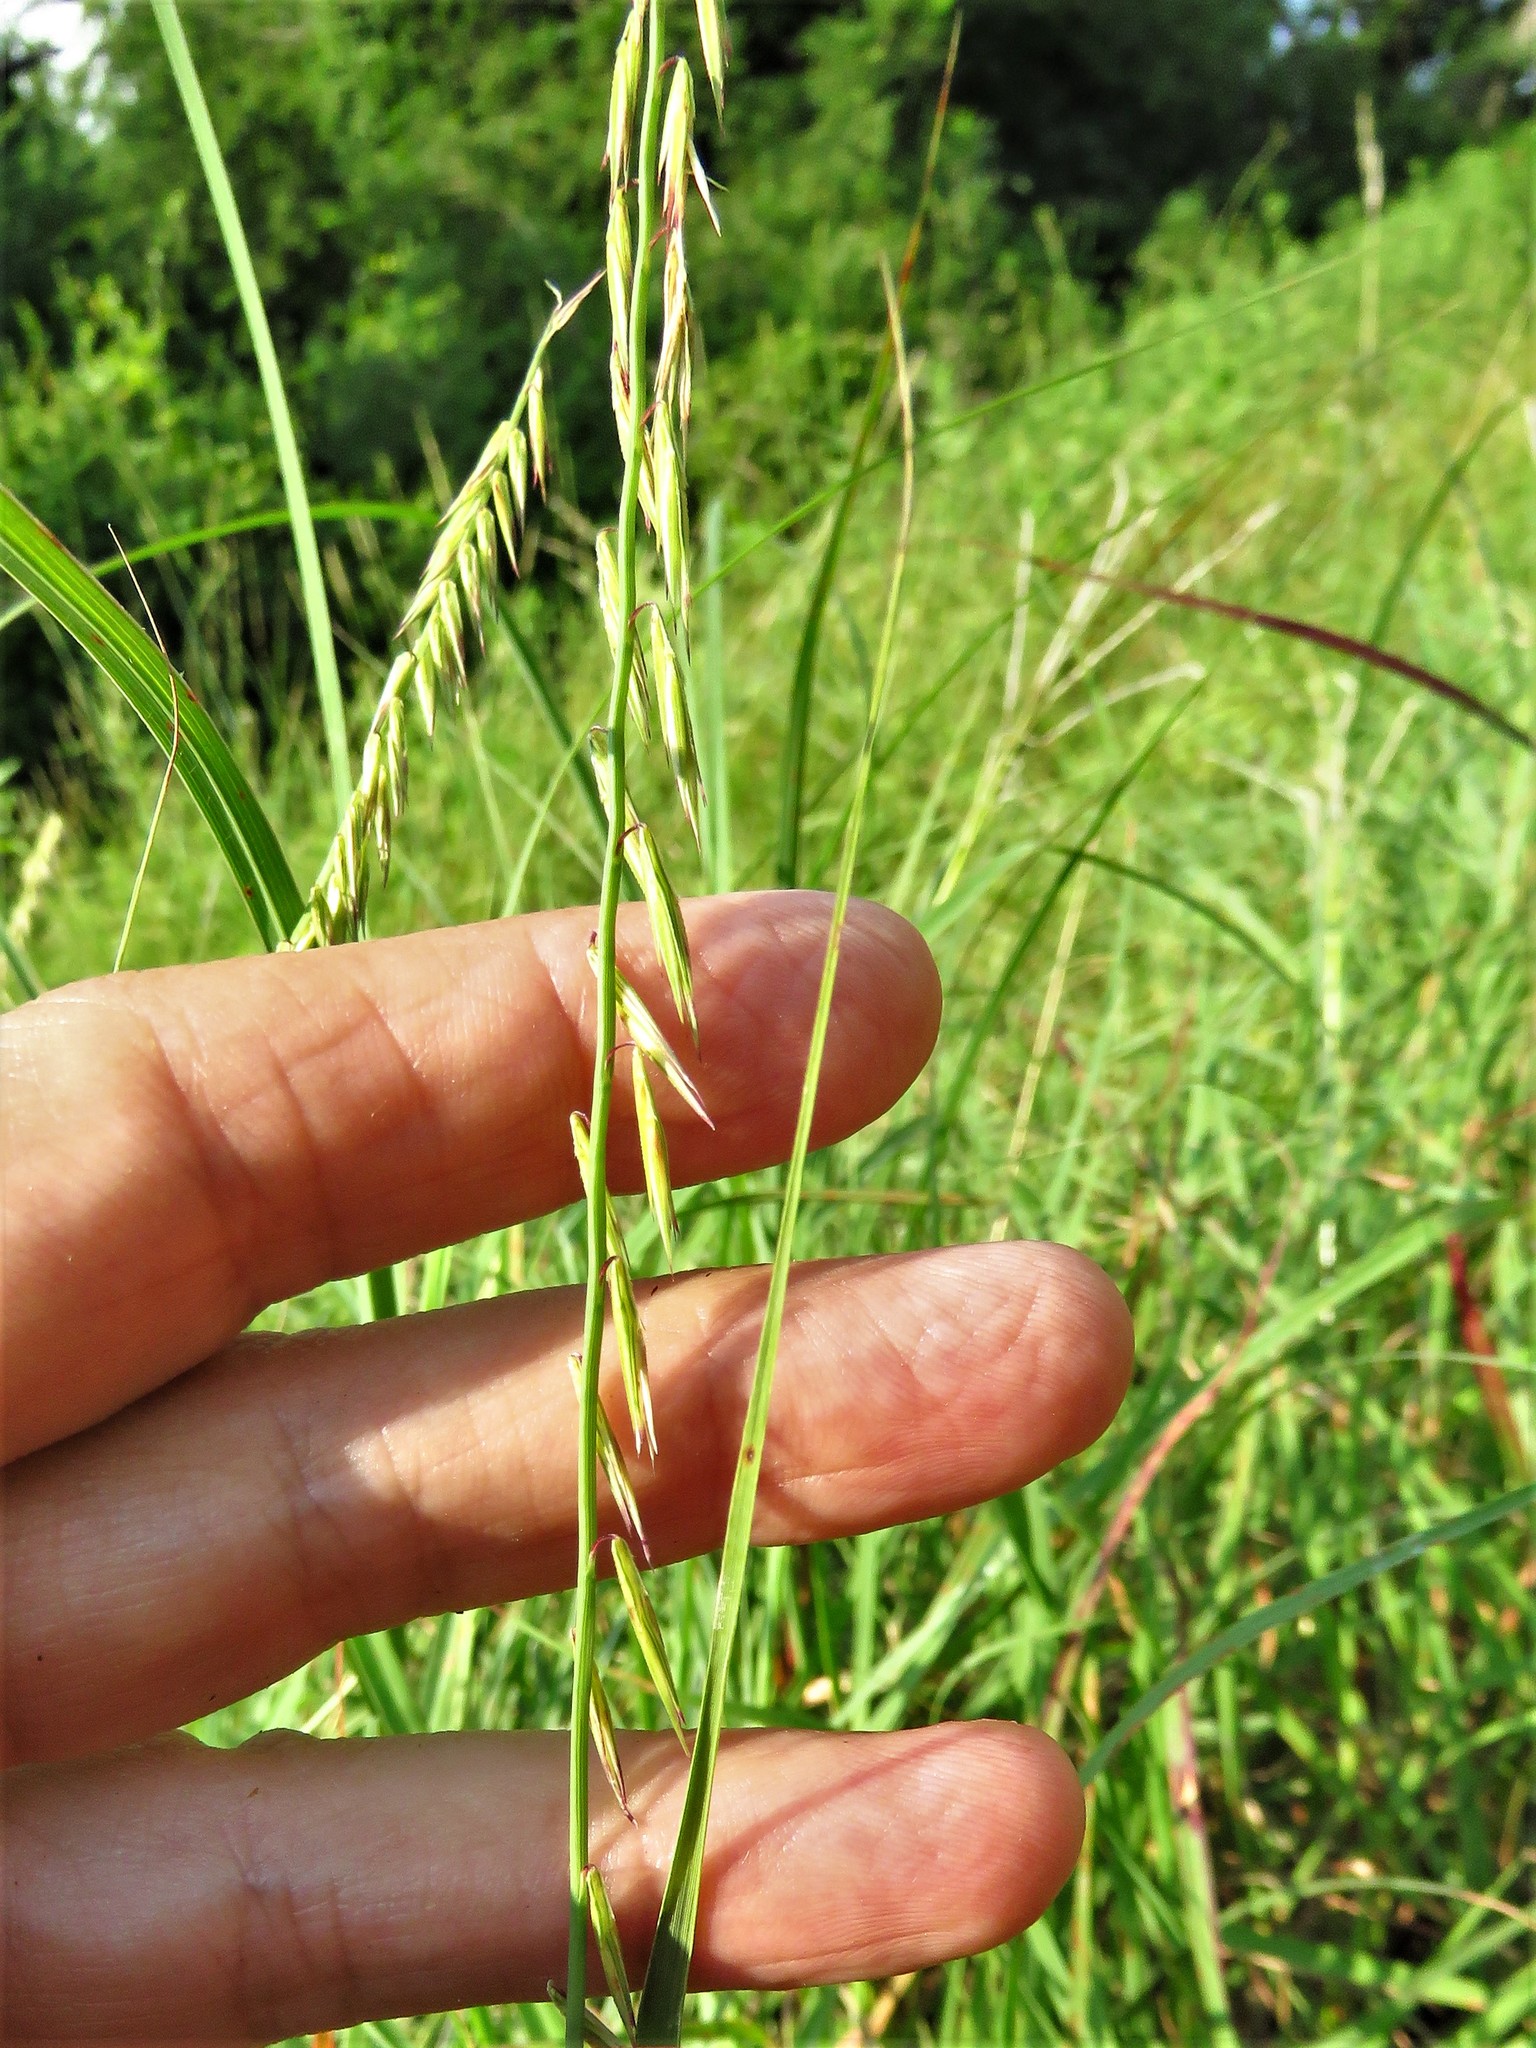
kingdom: Plantae
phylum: Tracheophyta
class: Liliopsida
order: Poales
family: Poaceae
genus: Bouteloua
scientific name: Bouteloua curtipendula
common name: Side-oats grama
